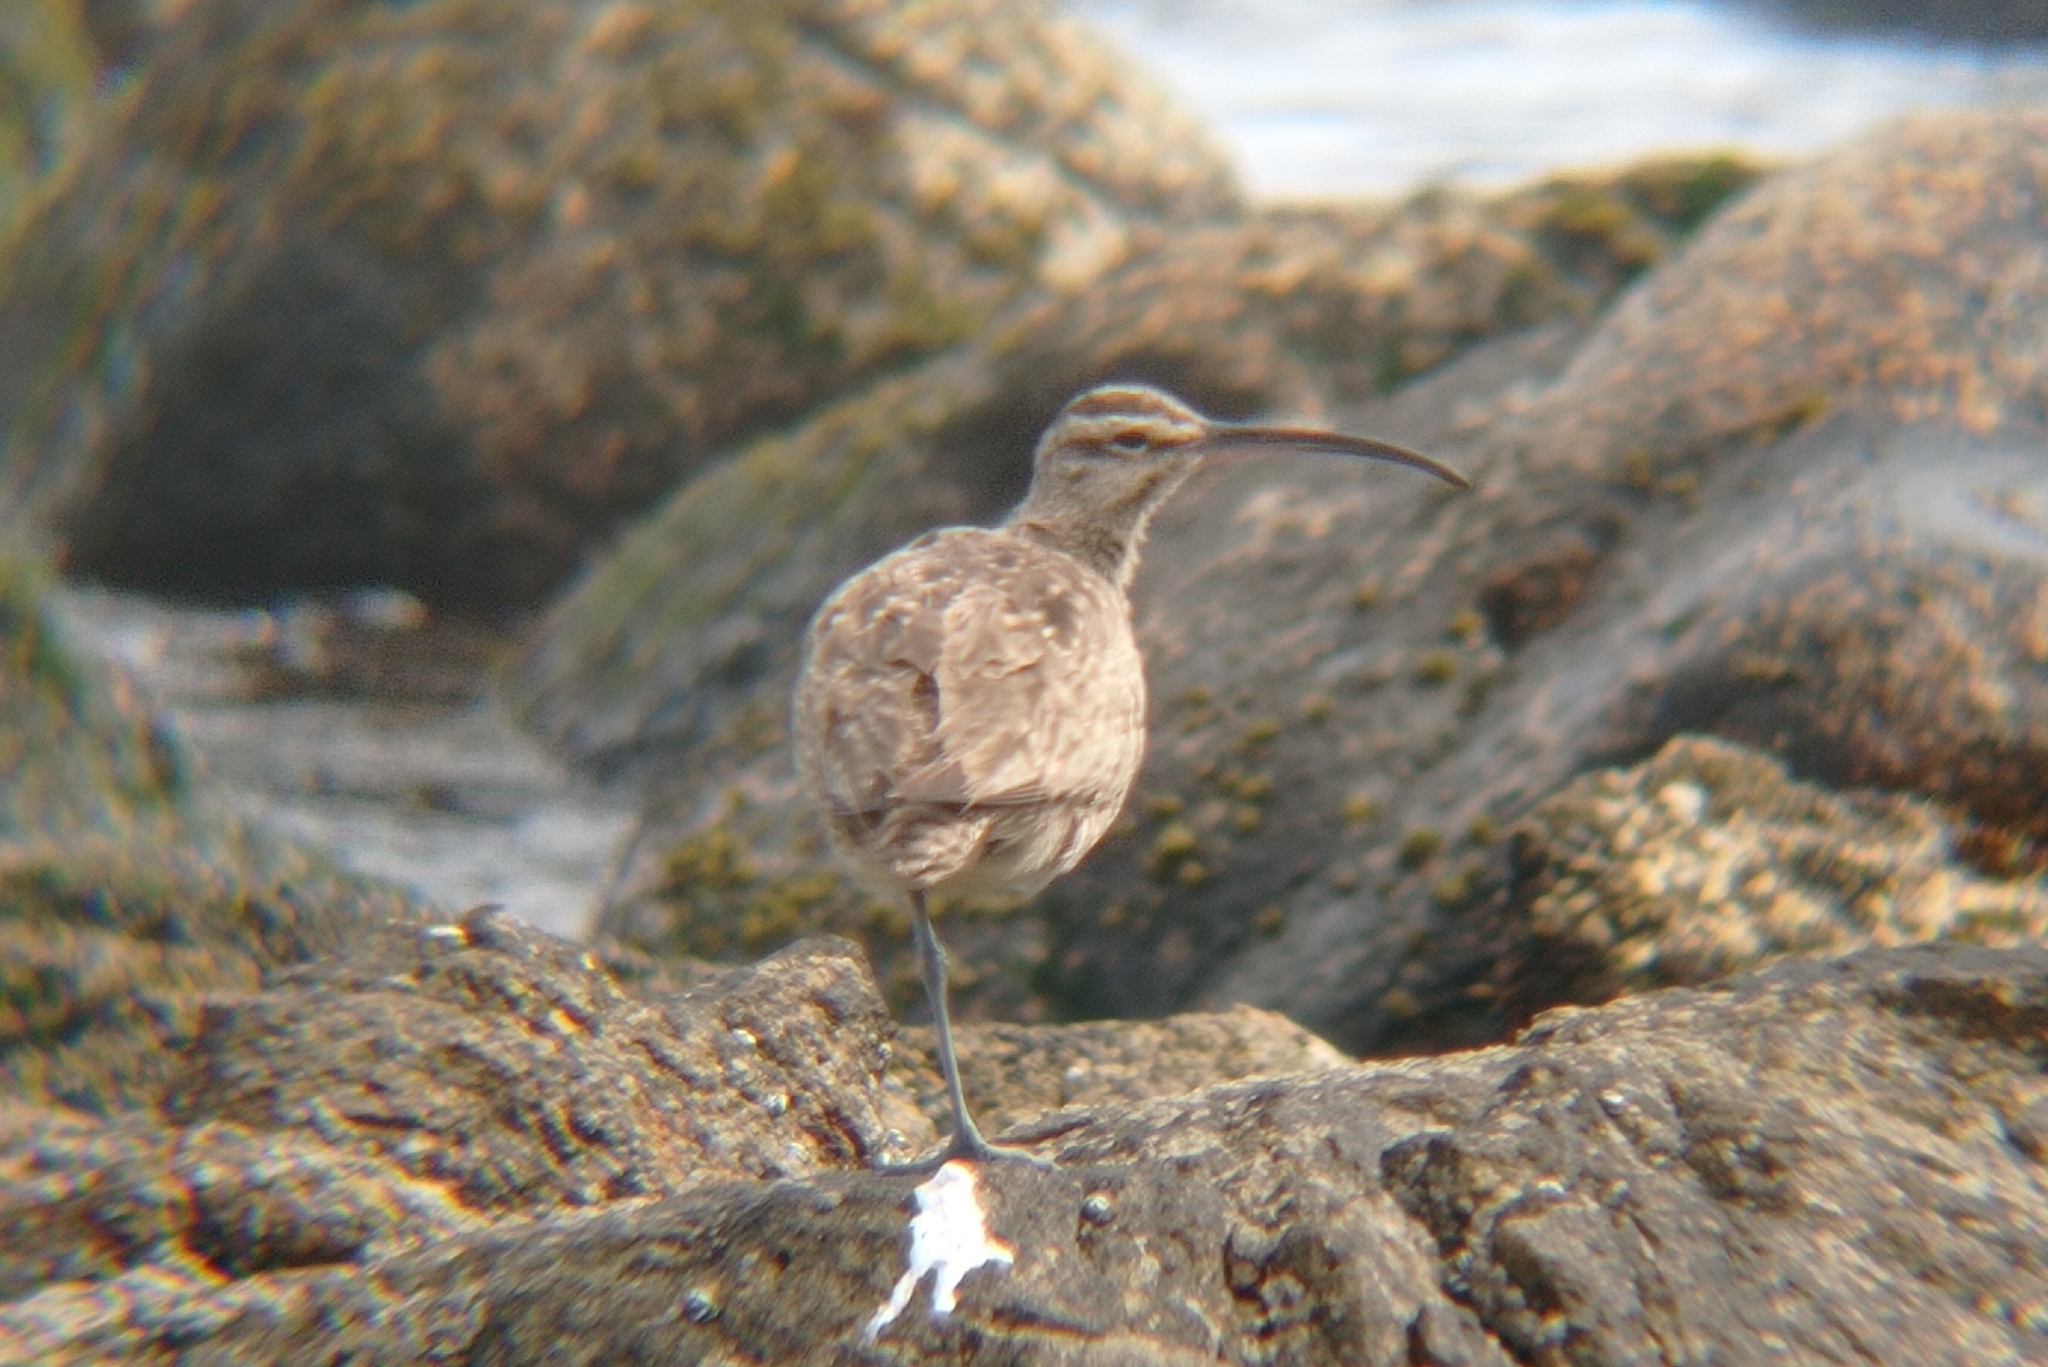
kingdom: Animalia
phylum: Chordata
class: Aves
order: Charadriiformes
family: Scolopacidae
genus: Numenius
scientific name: Numenius phaeopus
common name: Whimbrel
